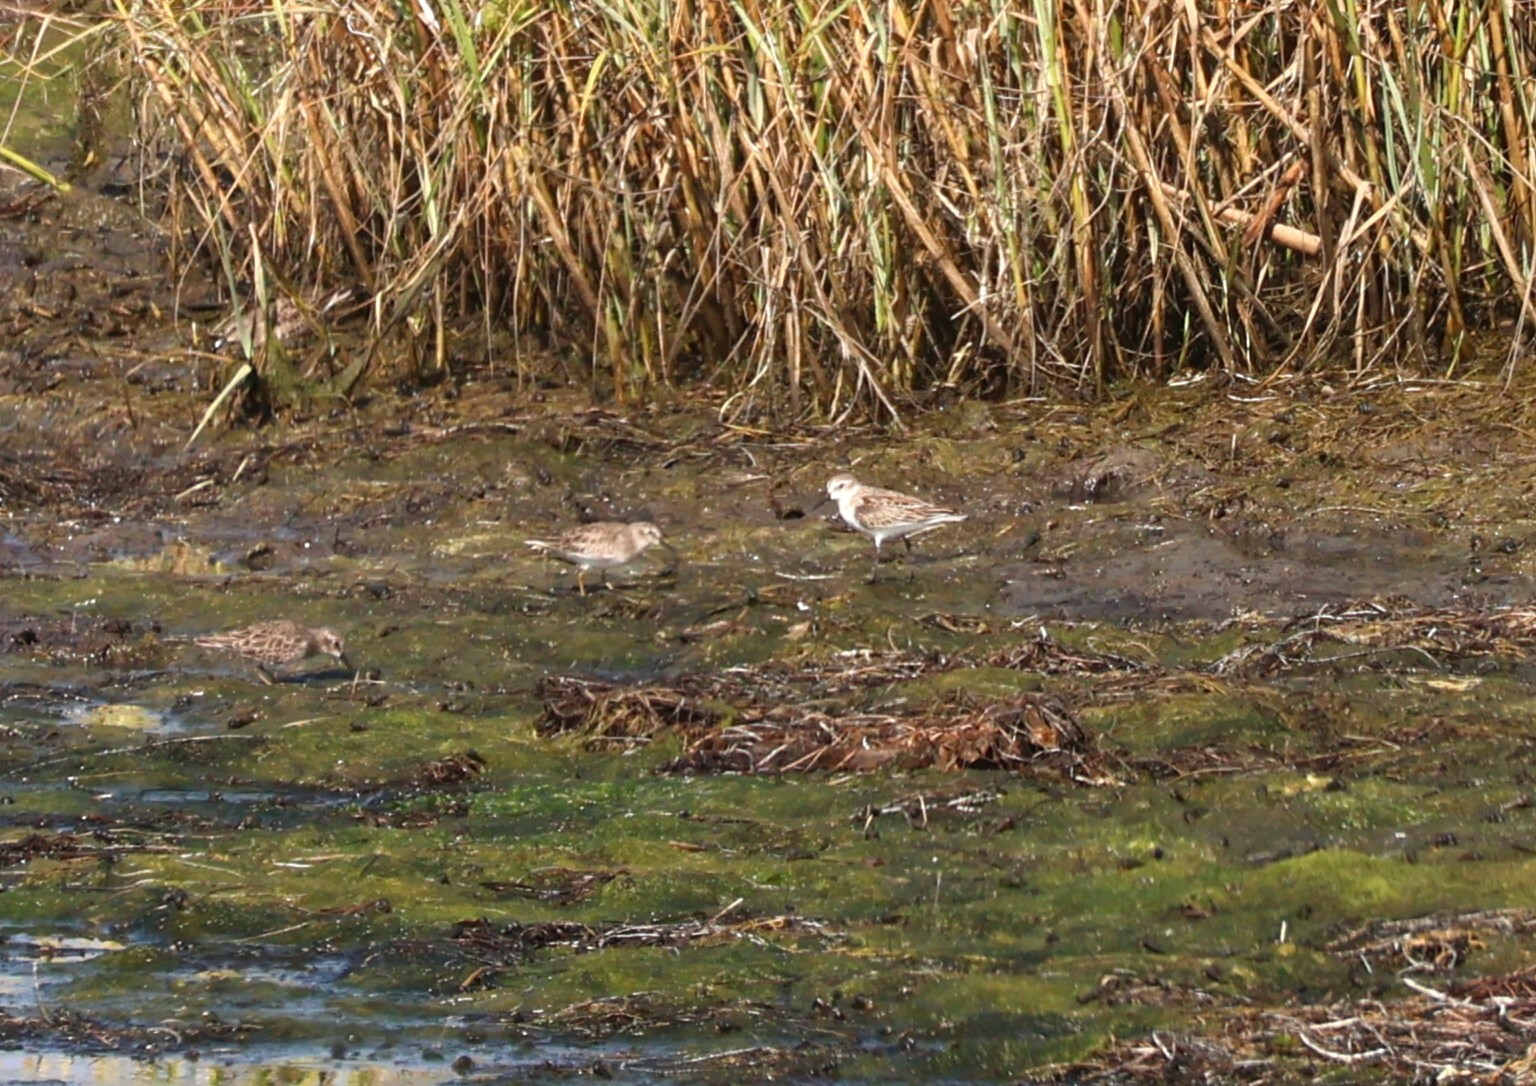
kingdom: Animalia
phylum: Chordata
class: Aves
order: Charadriiformes
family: Scolopacidae
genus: Calidris
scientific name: Calidris mauri
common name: Western sandpiper
